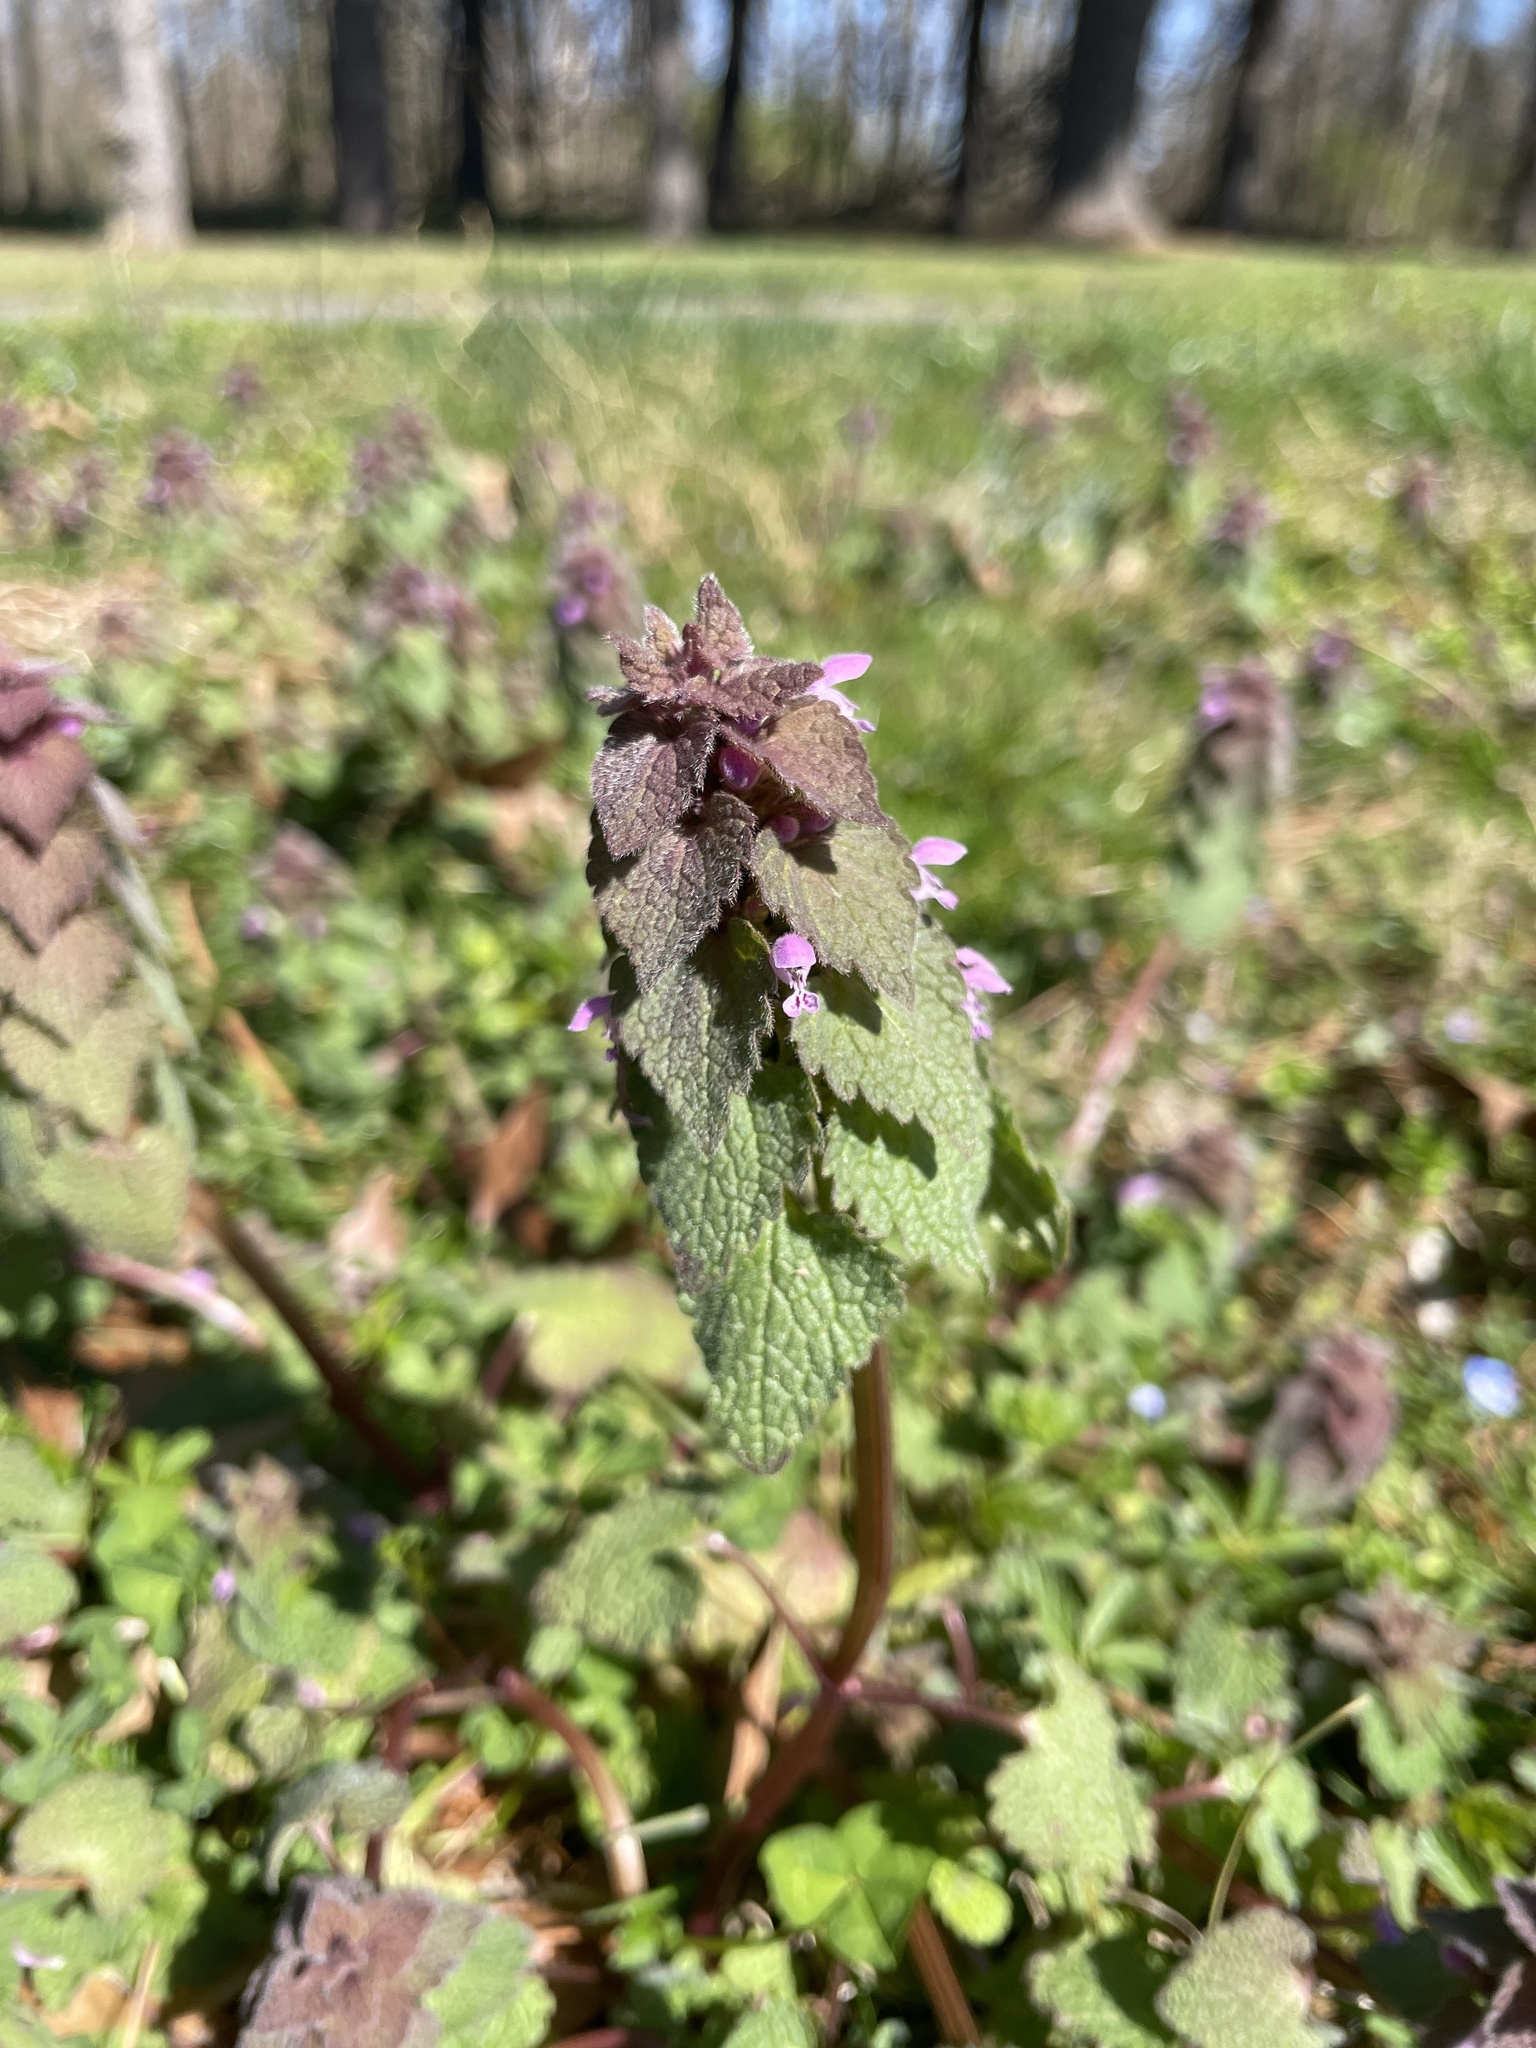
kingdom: Plantae
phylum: Tracheophyta
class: Magnoliopsida
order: Lamiales
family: Lamiaceae
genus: Lamium
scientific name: Lamium purpureum
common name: Red dead-nettle
